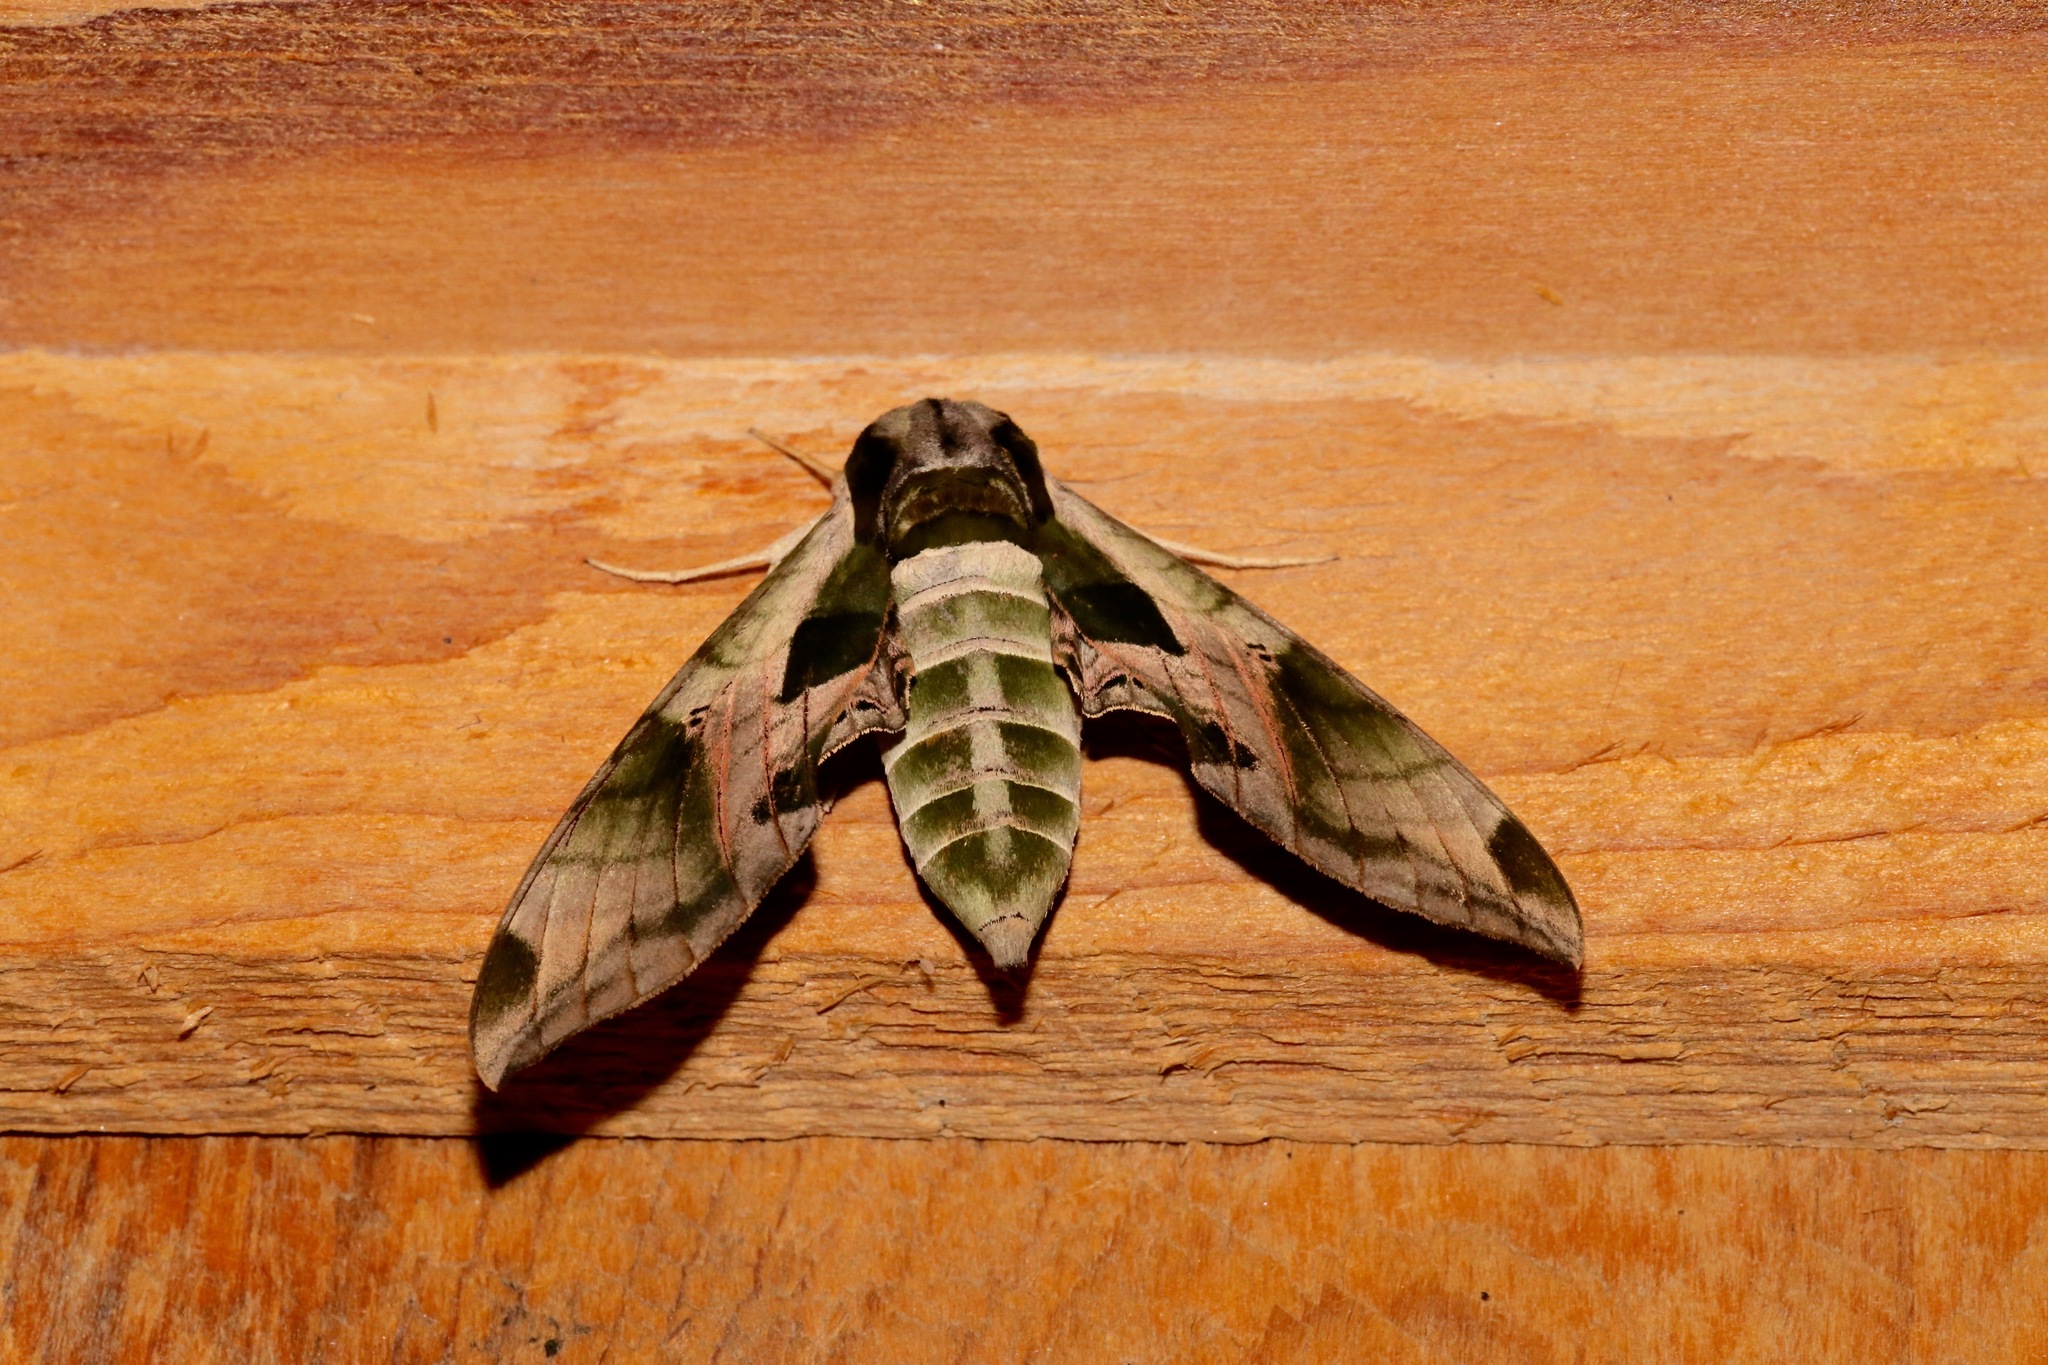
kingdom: Animalia
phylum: Arthropoda
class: Insecta
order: Lepidoptera
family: Sphingidae
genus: Eumorpha
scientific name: Eumorpha pandorus
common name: Pandora sphinx
